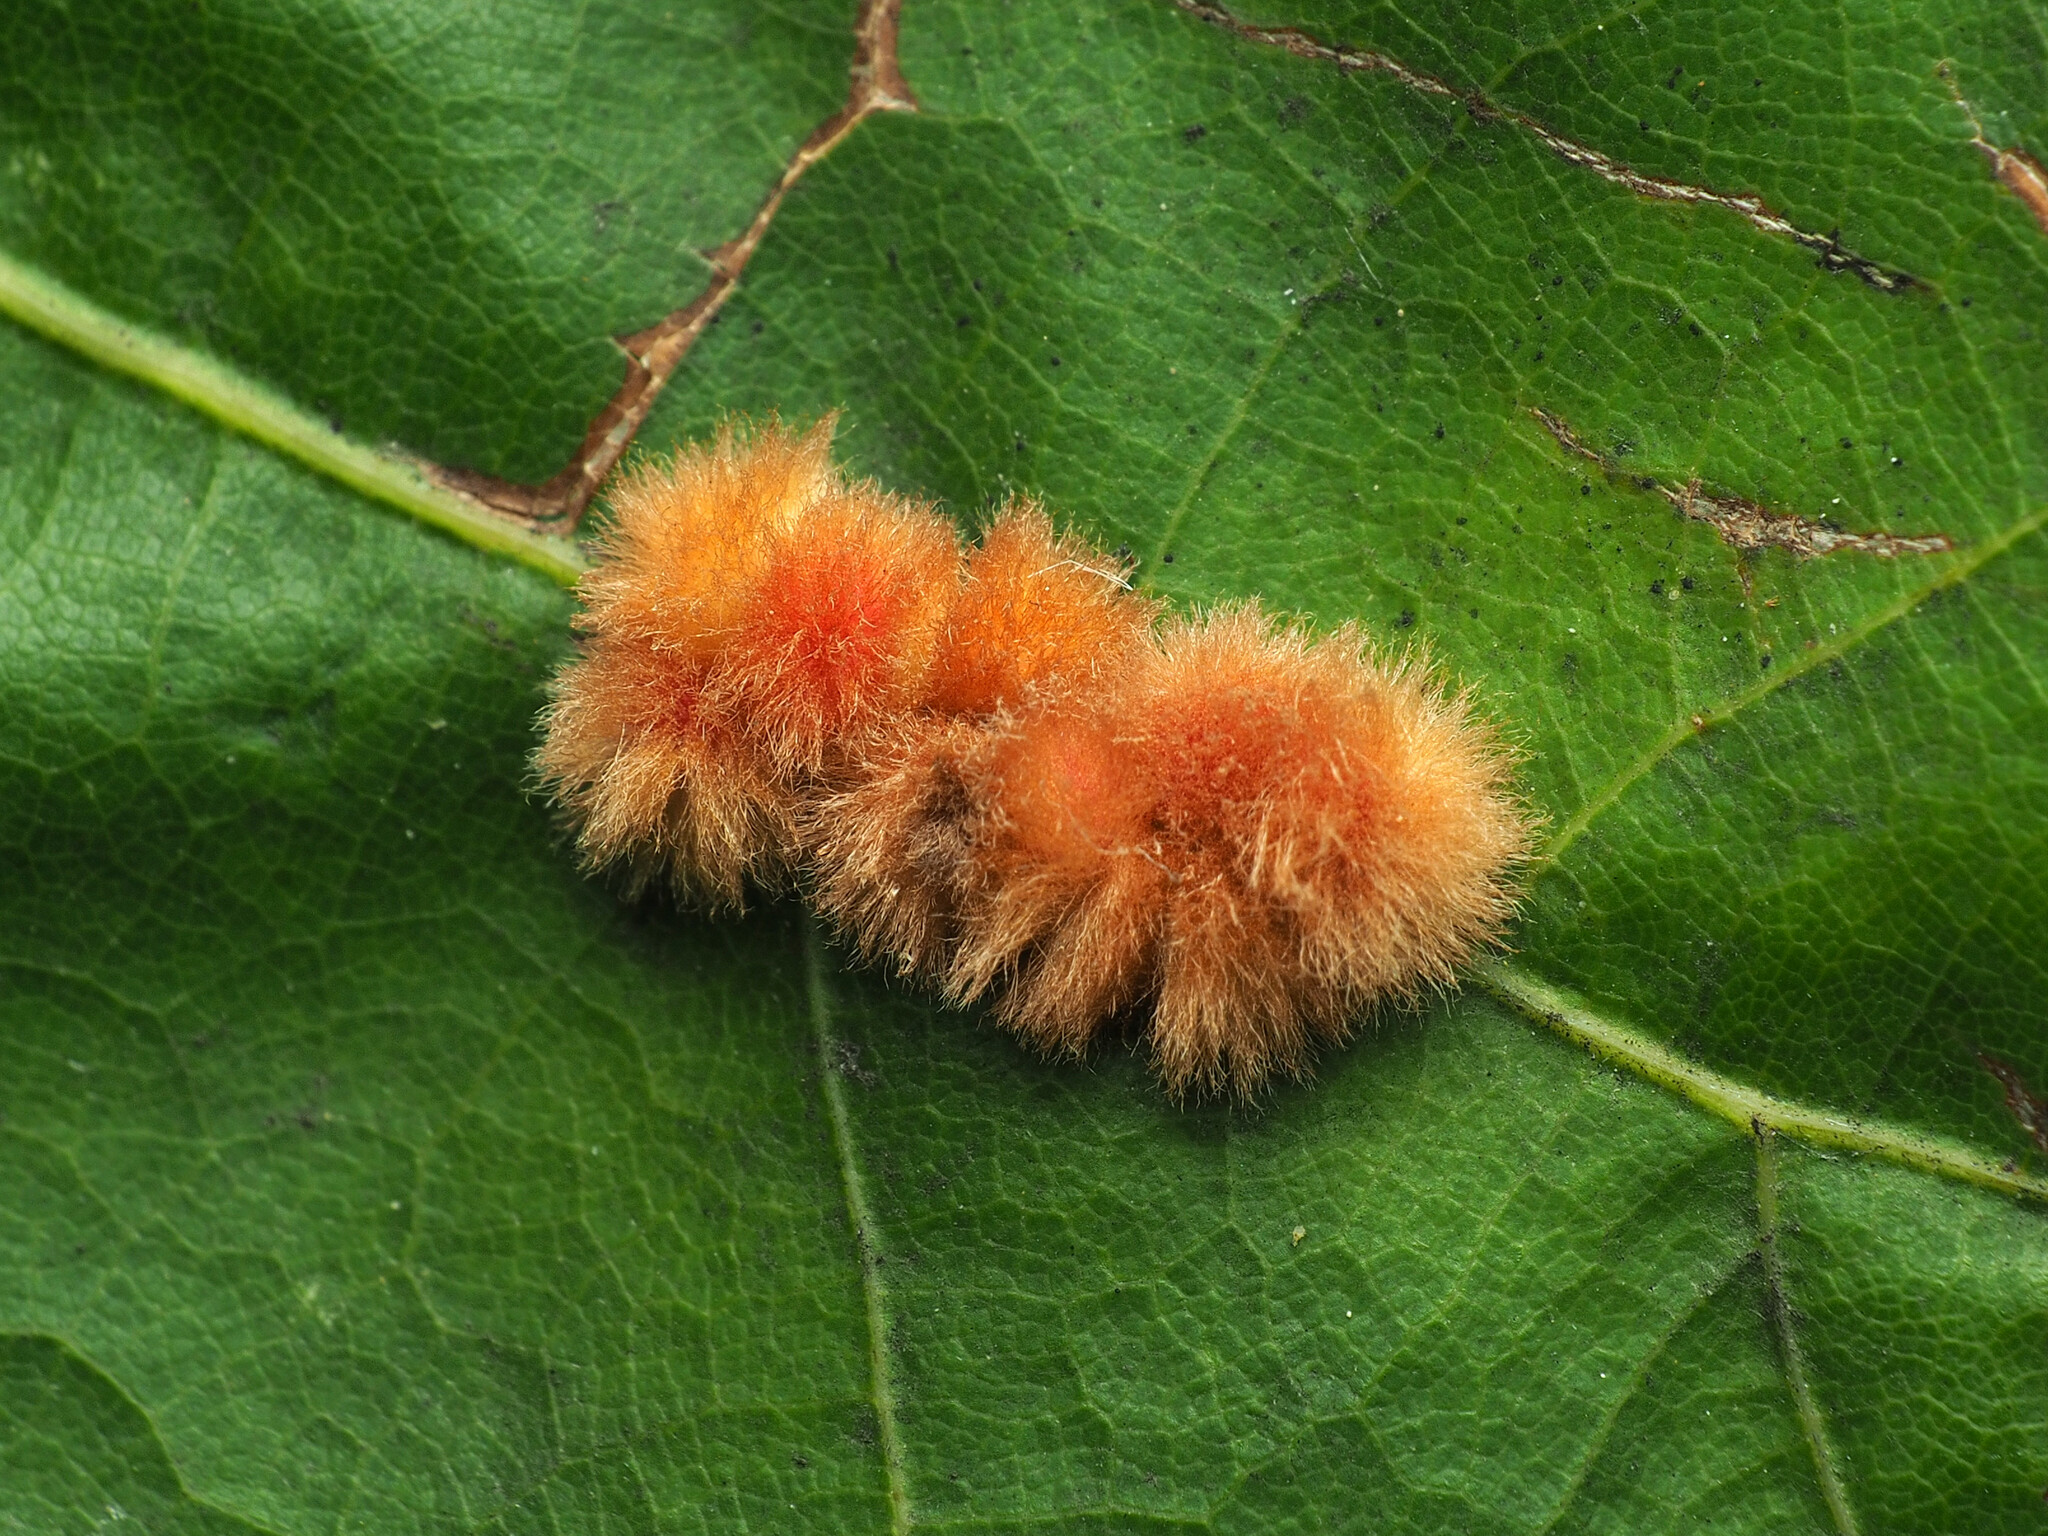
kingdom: Animalia
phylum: Arthropoda
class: Insecta
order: Hymenoptera
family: Cynipidae
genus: Callirhytis
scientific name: Callirhytis
